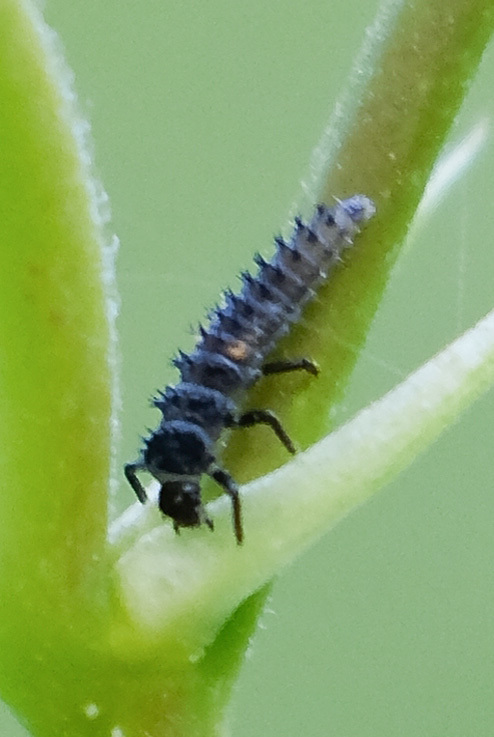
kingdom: Animalia
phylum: Arthropoda
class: Insecta
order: Coleoptera
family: Coccinellidae
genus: Harmonia
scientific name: Harmonia axyridis
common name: Harlequin ladybird
